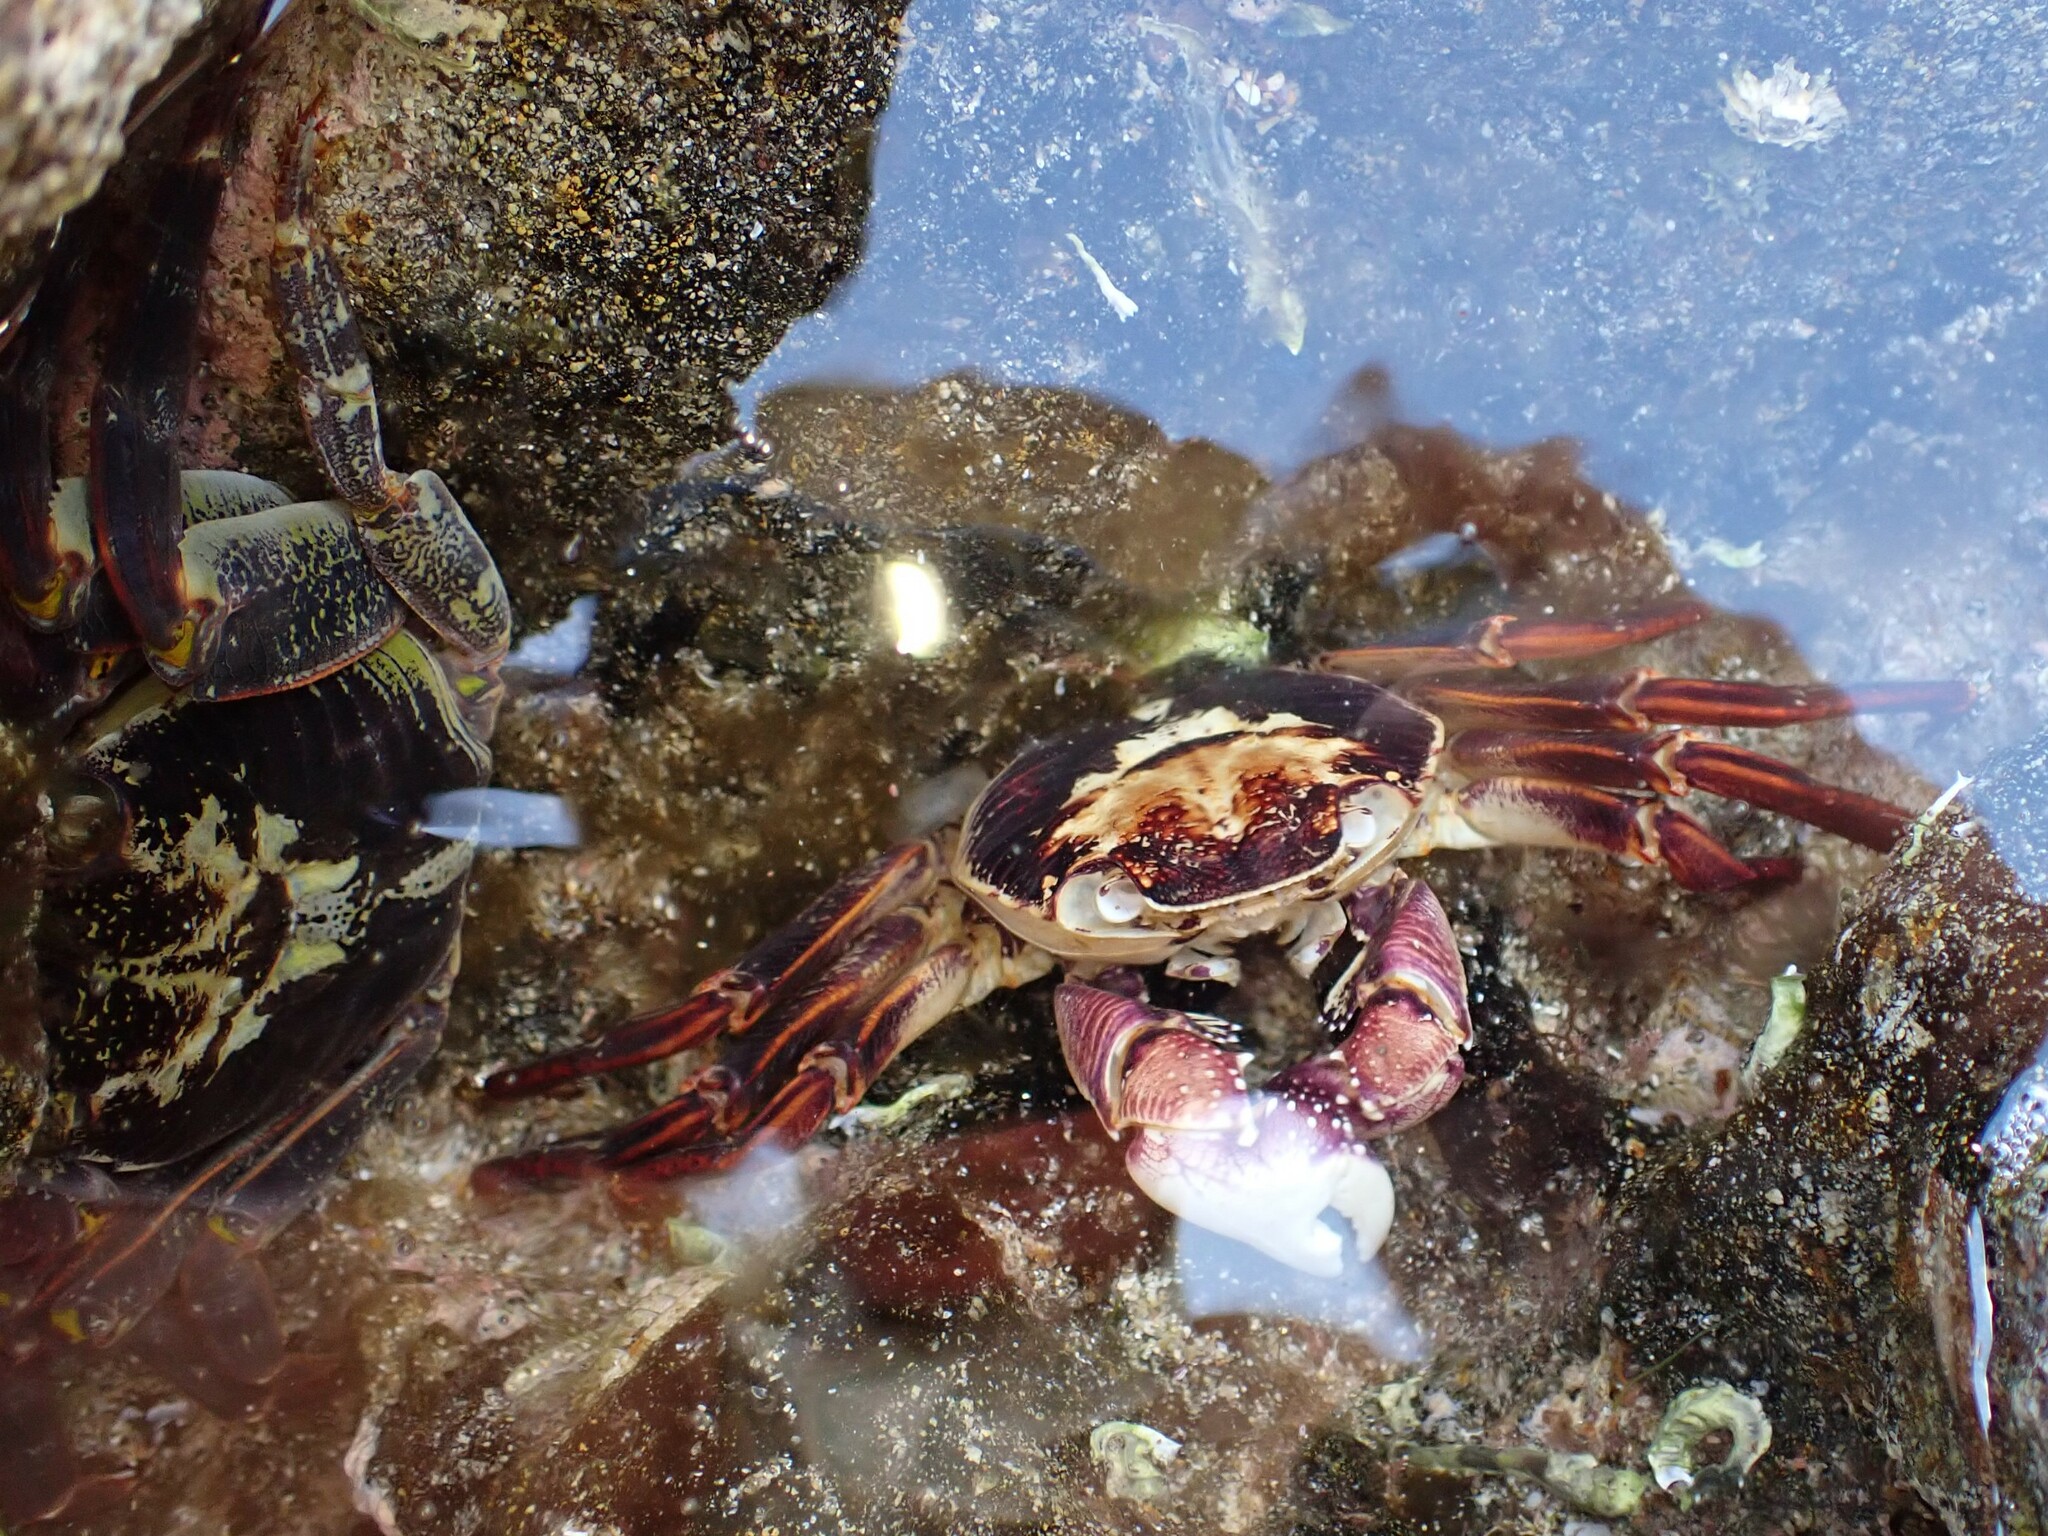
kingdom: Animalia
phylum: Arthropoda
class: Malacostraca
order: Decapoda
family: Grapsidae
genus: Leptograpsus
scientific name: Leptograpsus variegatus
